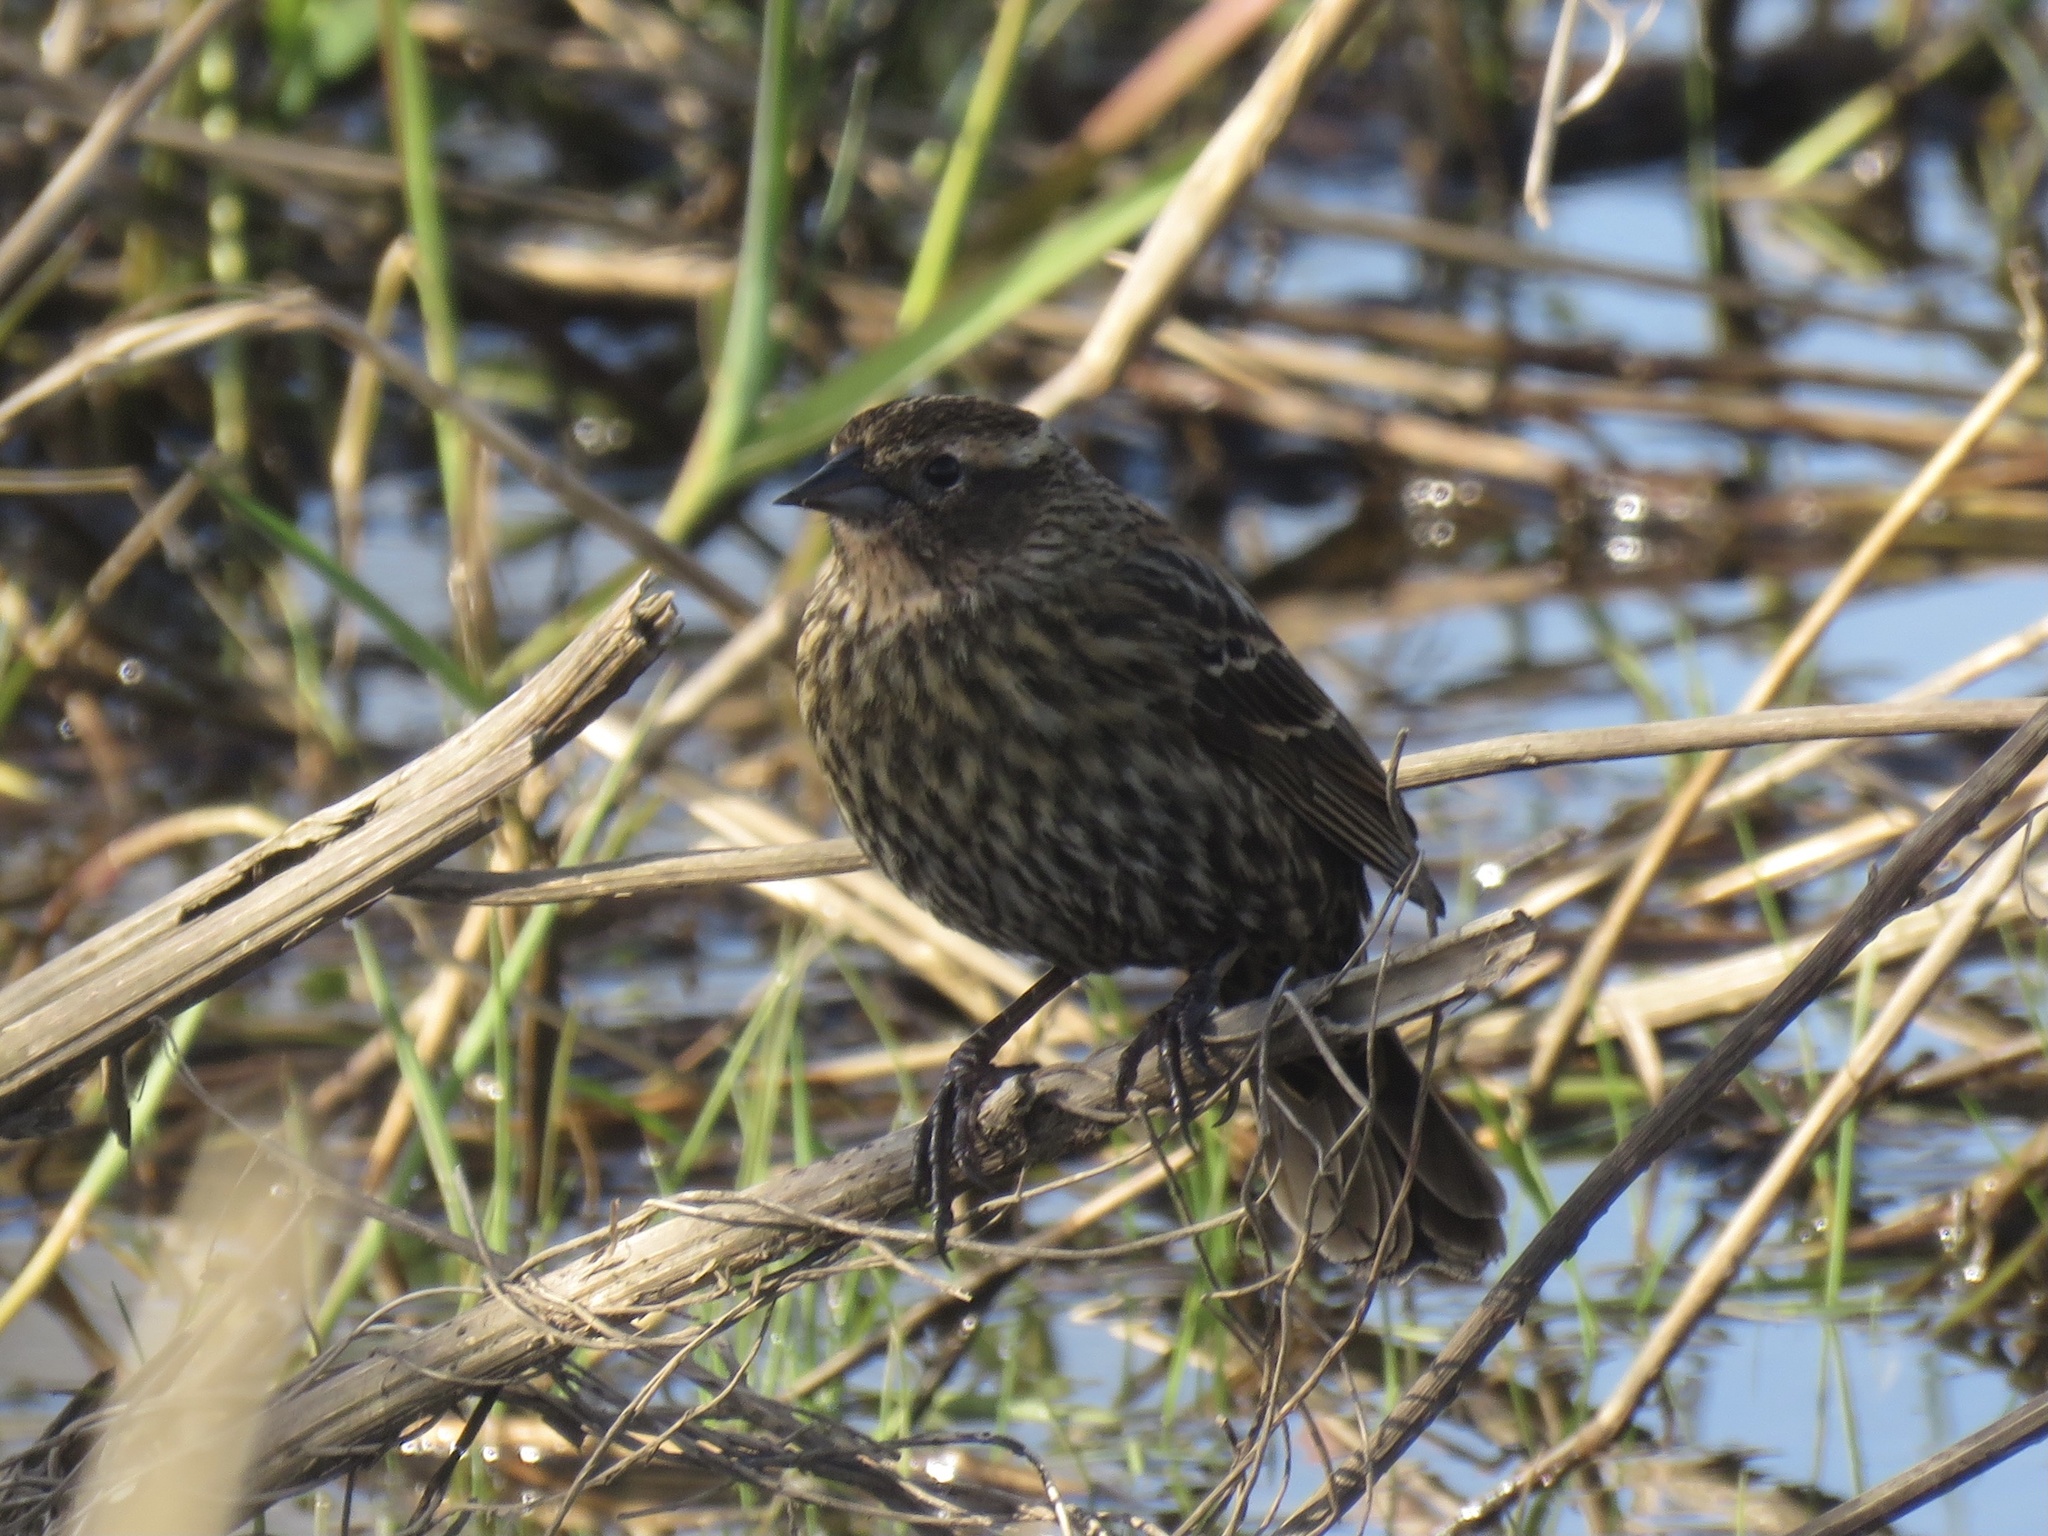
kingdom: Animalia
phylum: Chordata
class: Aves
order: Passeriformes
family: Icteridae
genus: Agelaius
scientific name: Agelaius phoeniceus
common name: Red-winged blackbird
